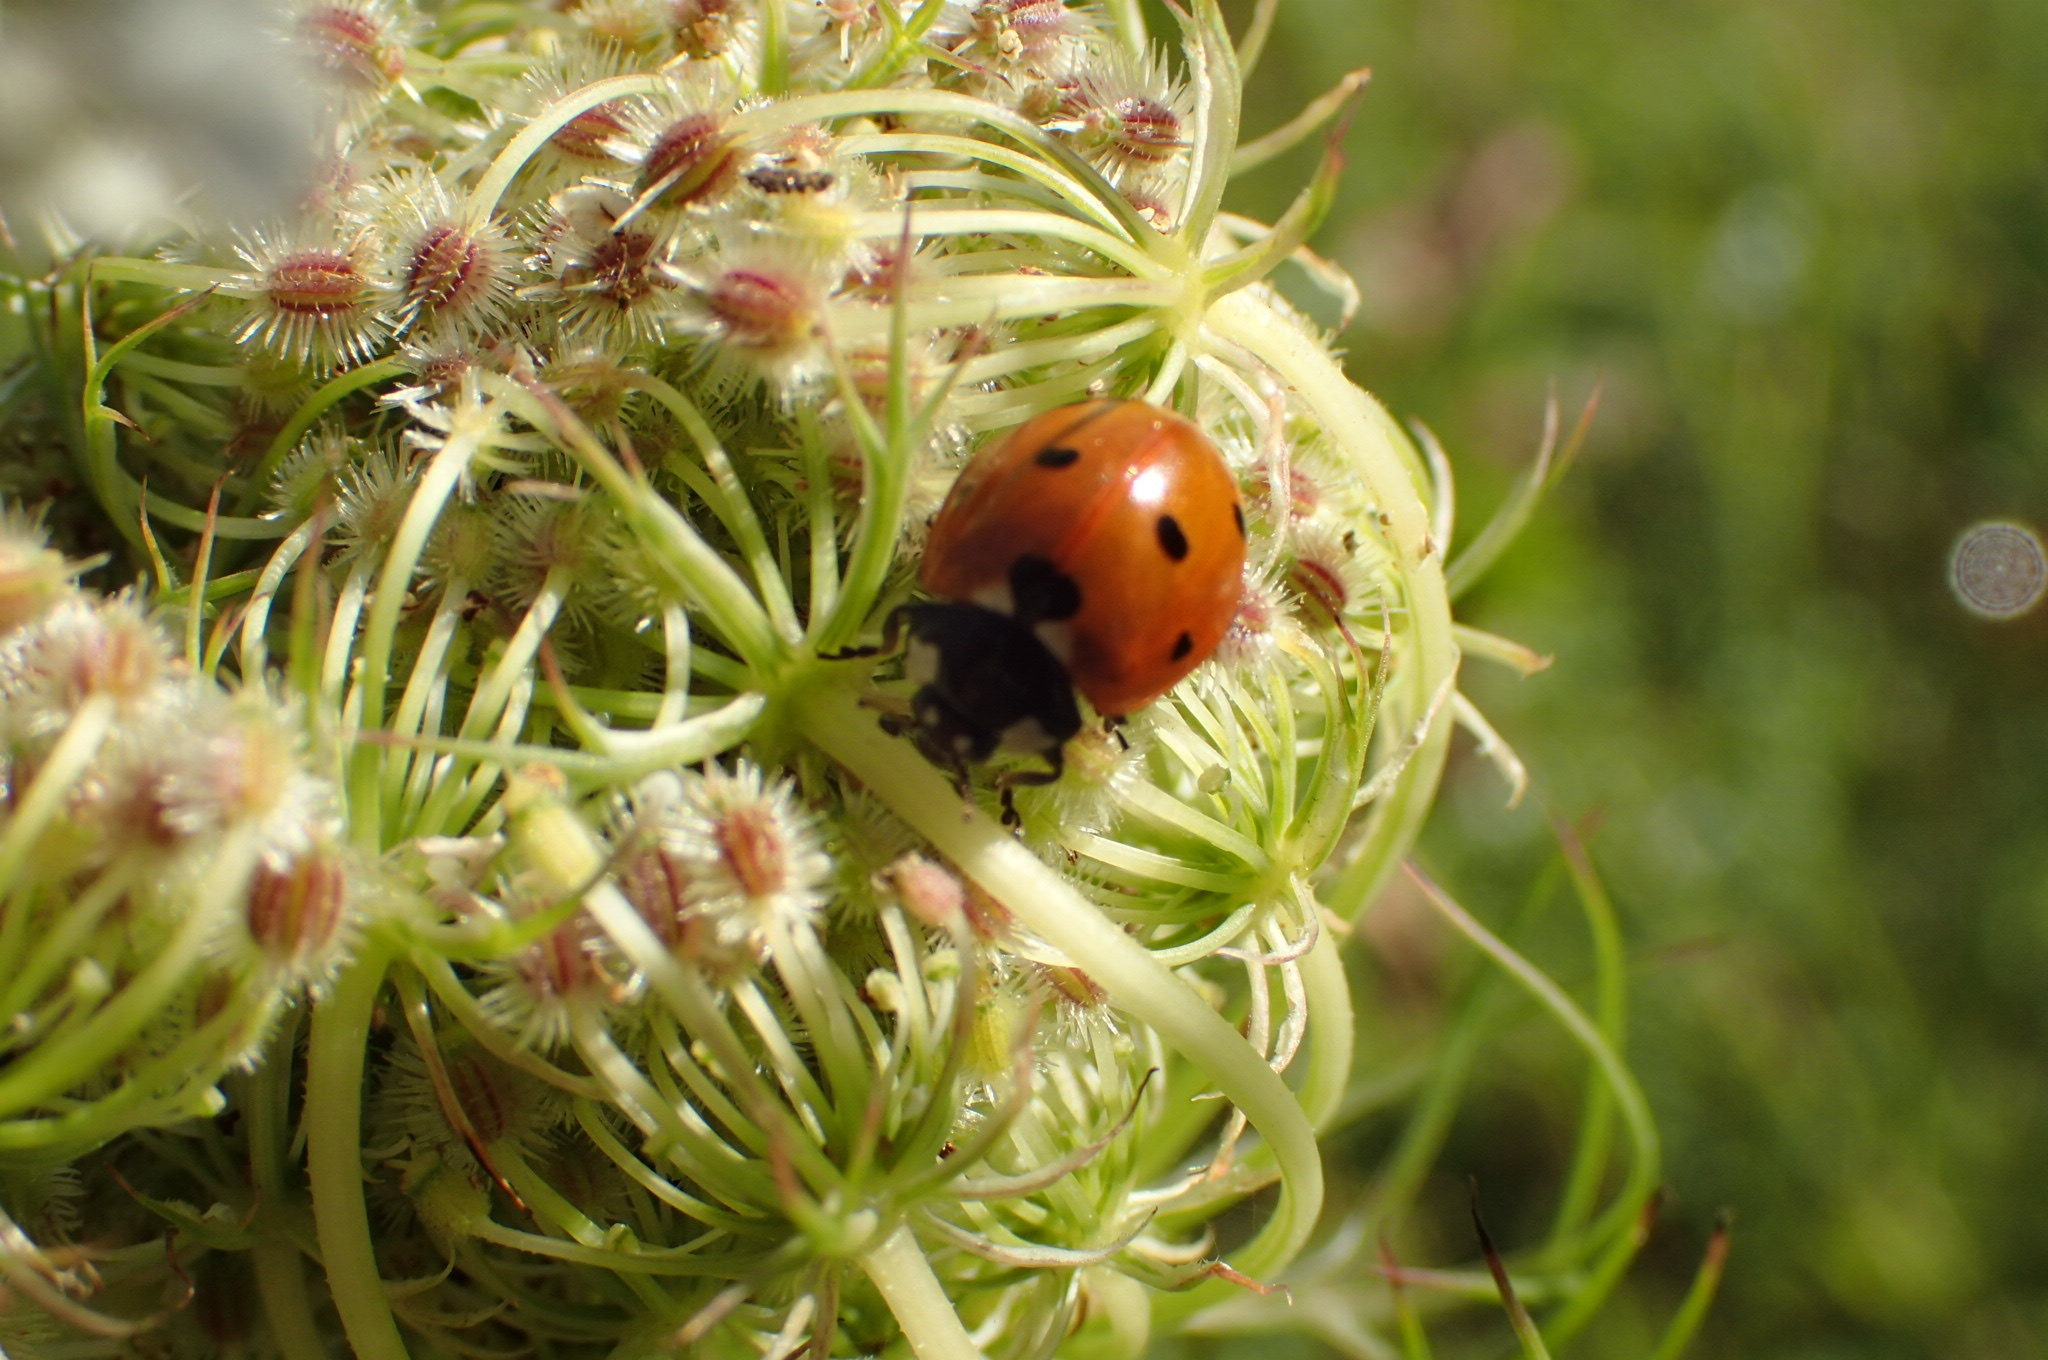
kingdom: Animalia
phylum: Arthropoda
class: Insecta
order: Coleoptera
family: Coccinellidae
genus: Coccinella
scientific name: Coccinella septempunctata
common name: Sevenspotted lady beetle
